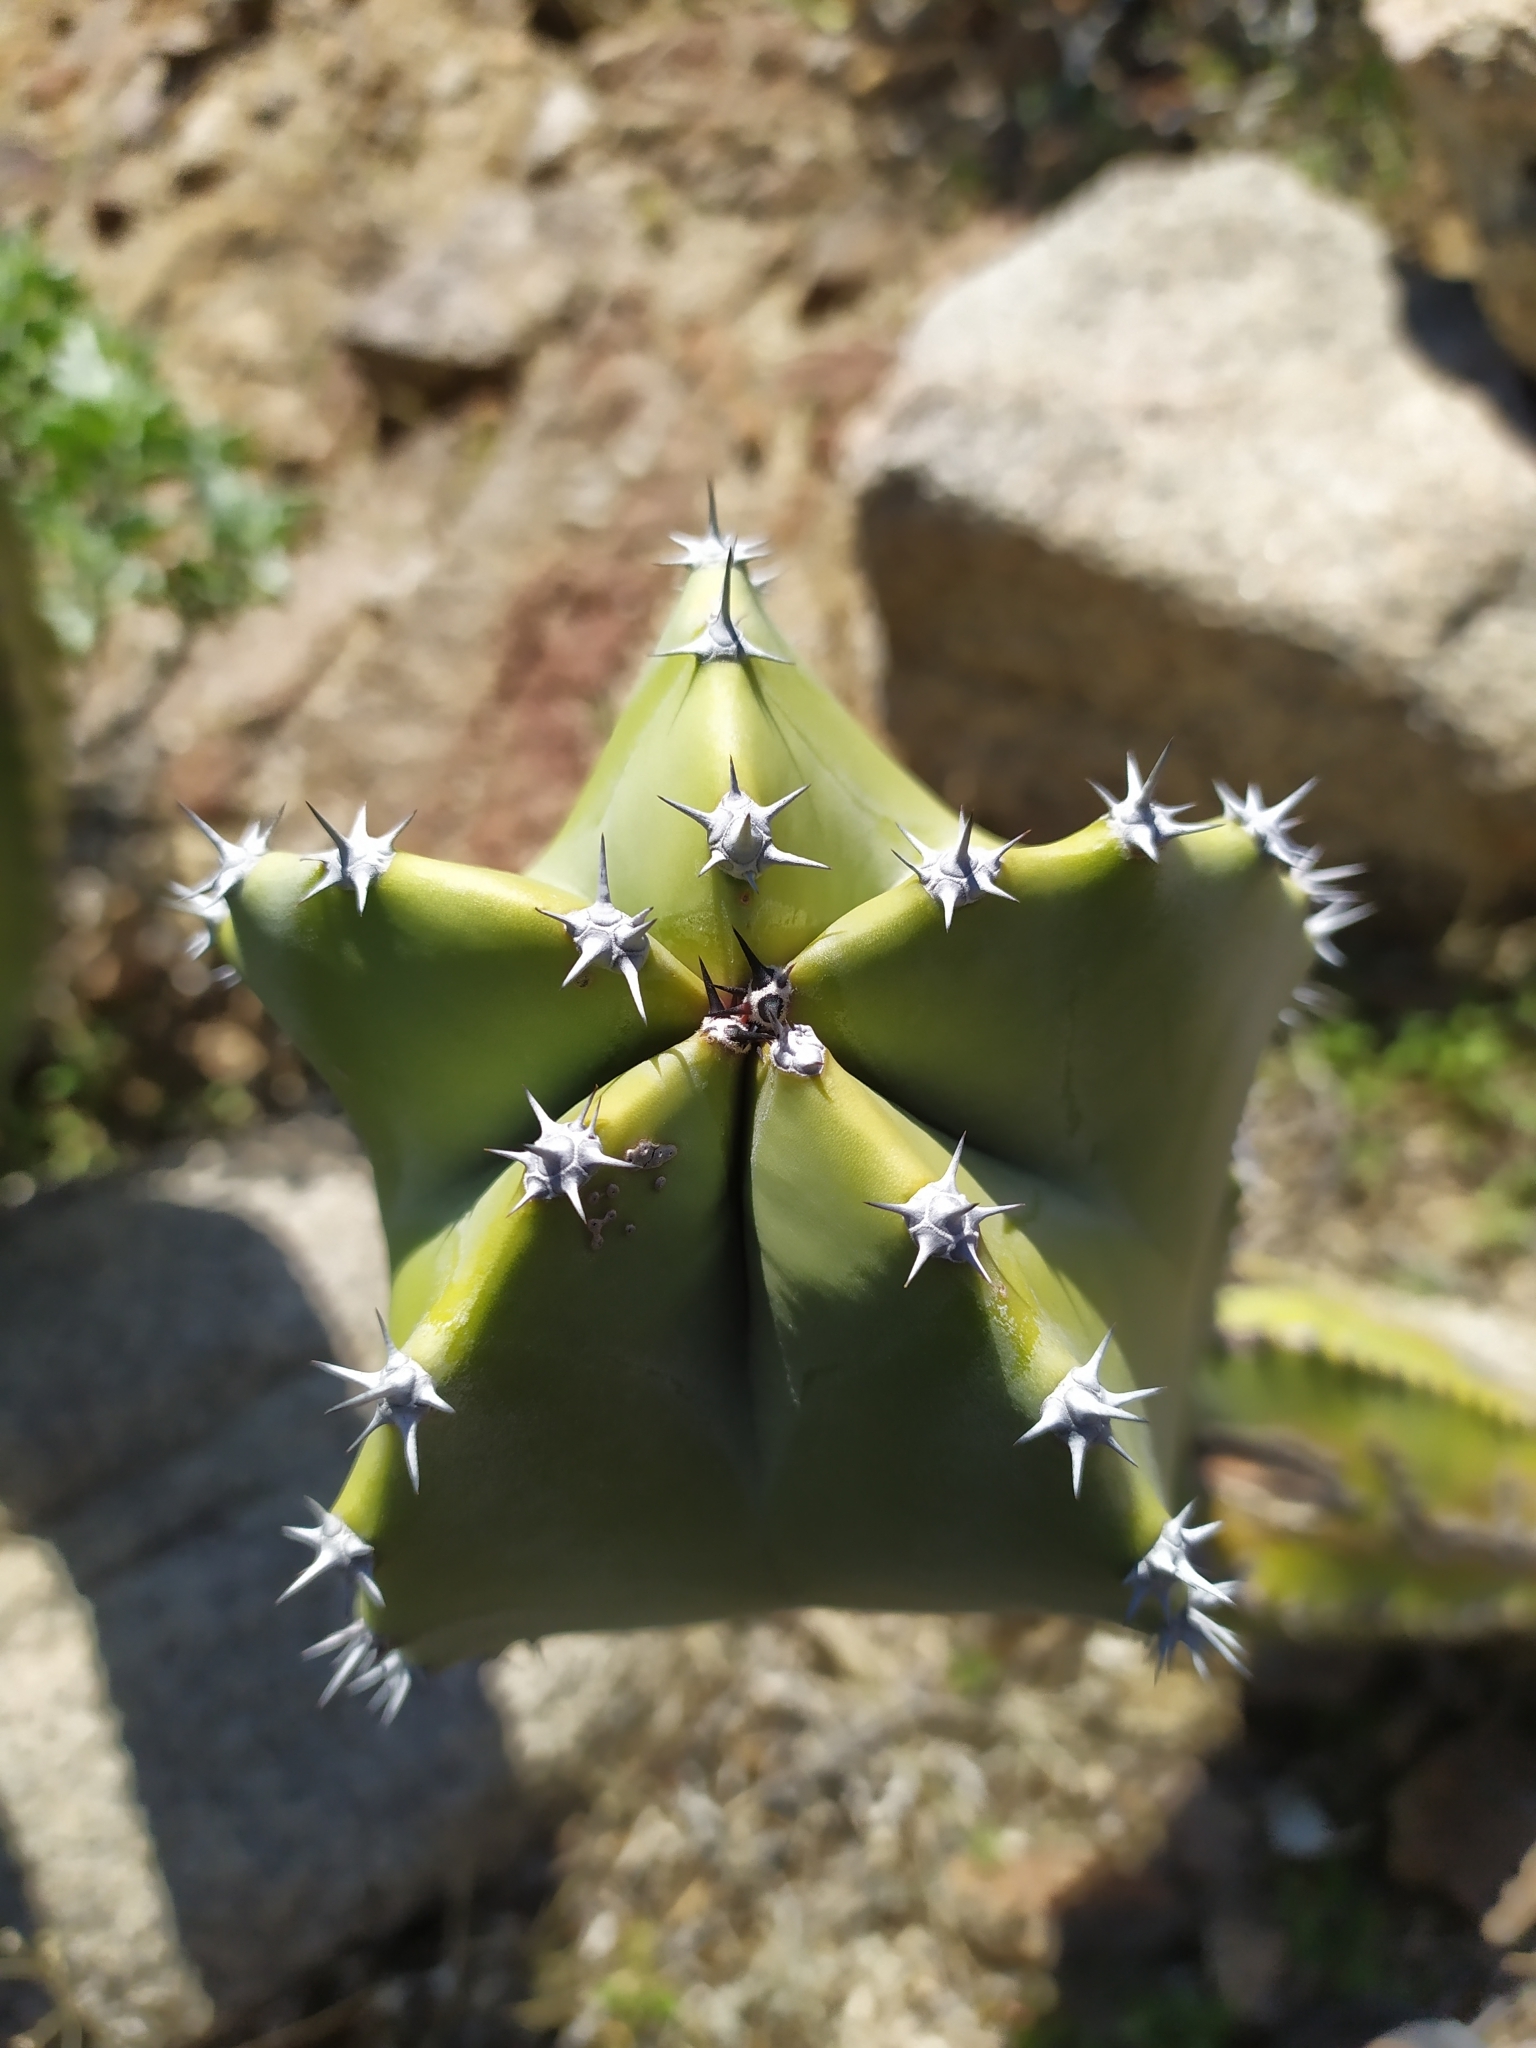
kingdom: Plantae
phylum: Tracheophyta
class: Magnoliopsida
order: Caryophyllales
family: Cactaceae
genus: Pachycereus
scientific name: Pachycereus schottii
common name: Senita cactus
